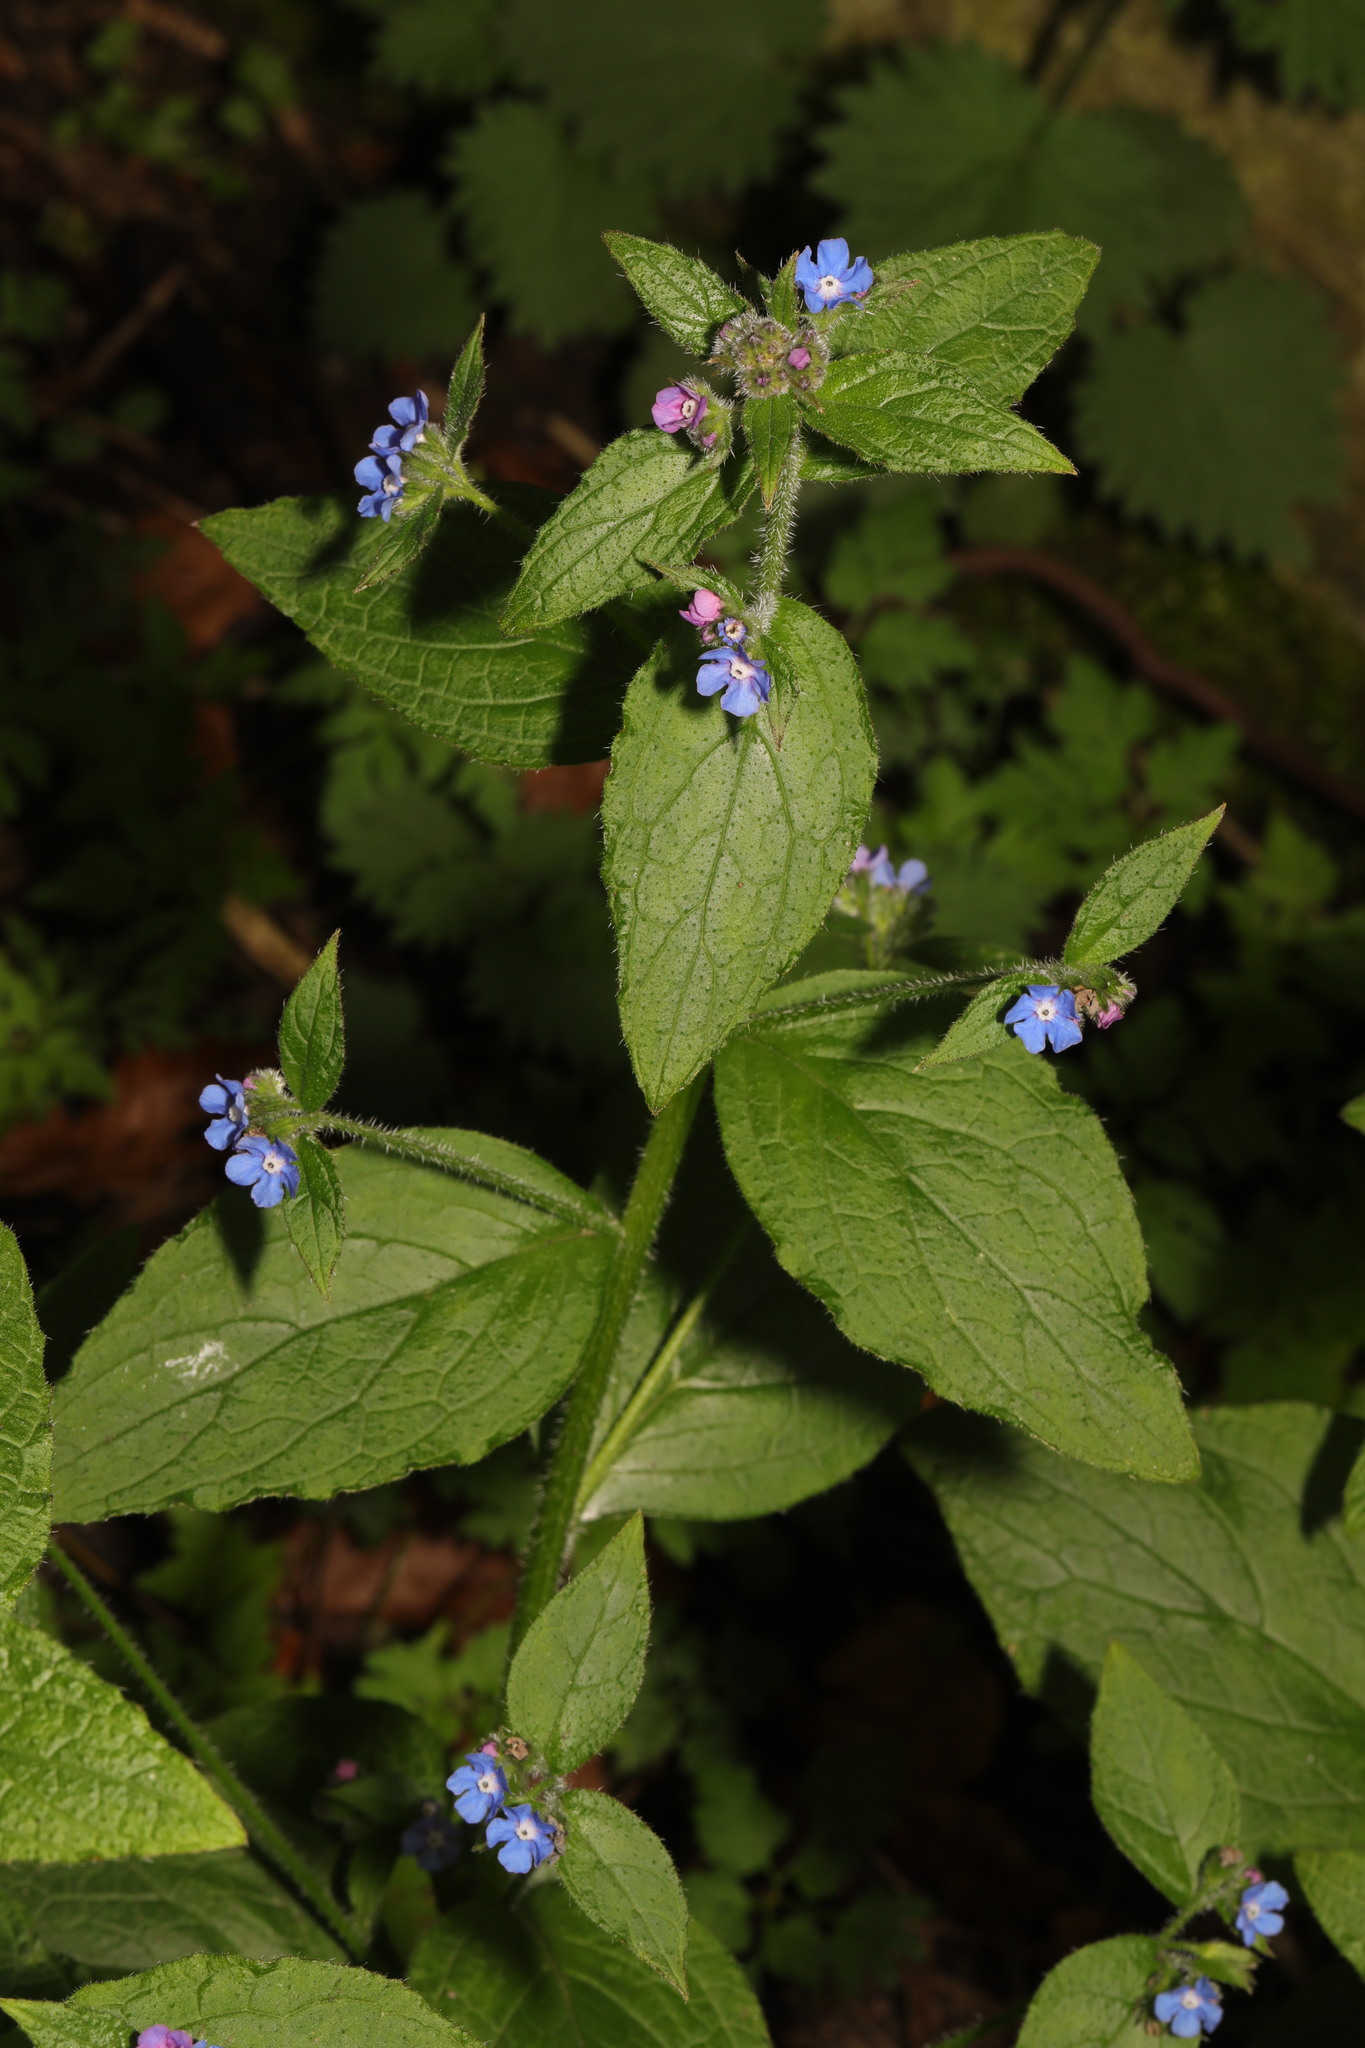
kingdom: Plantae
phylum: Tracheophyta
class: Magnoliopsida
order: Boraginales
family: Boraginaceae
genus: Pentaglottis
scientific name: Pentaglottis sempervirens
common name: Green alkanet
